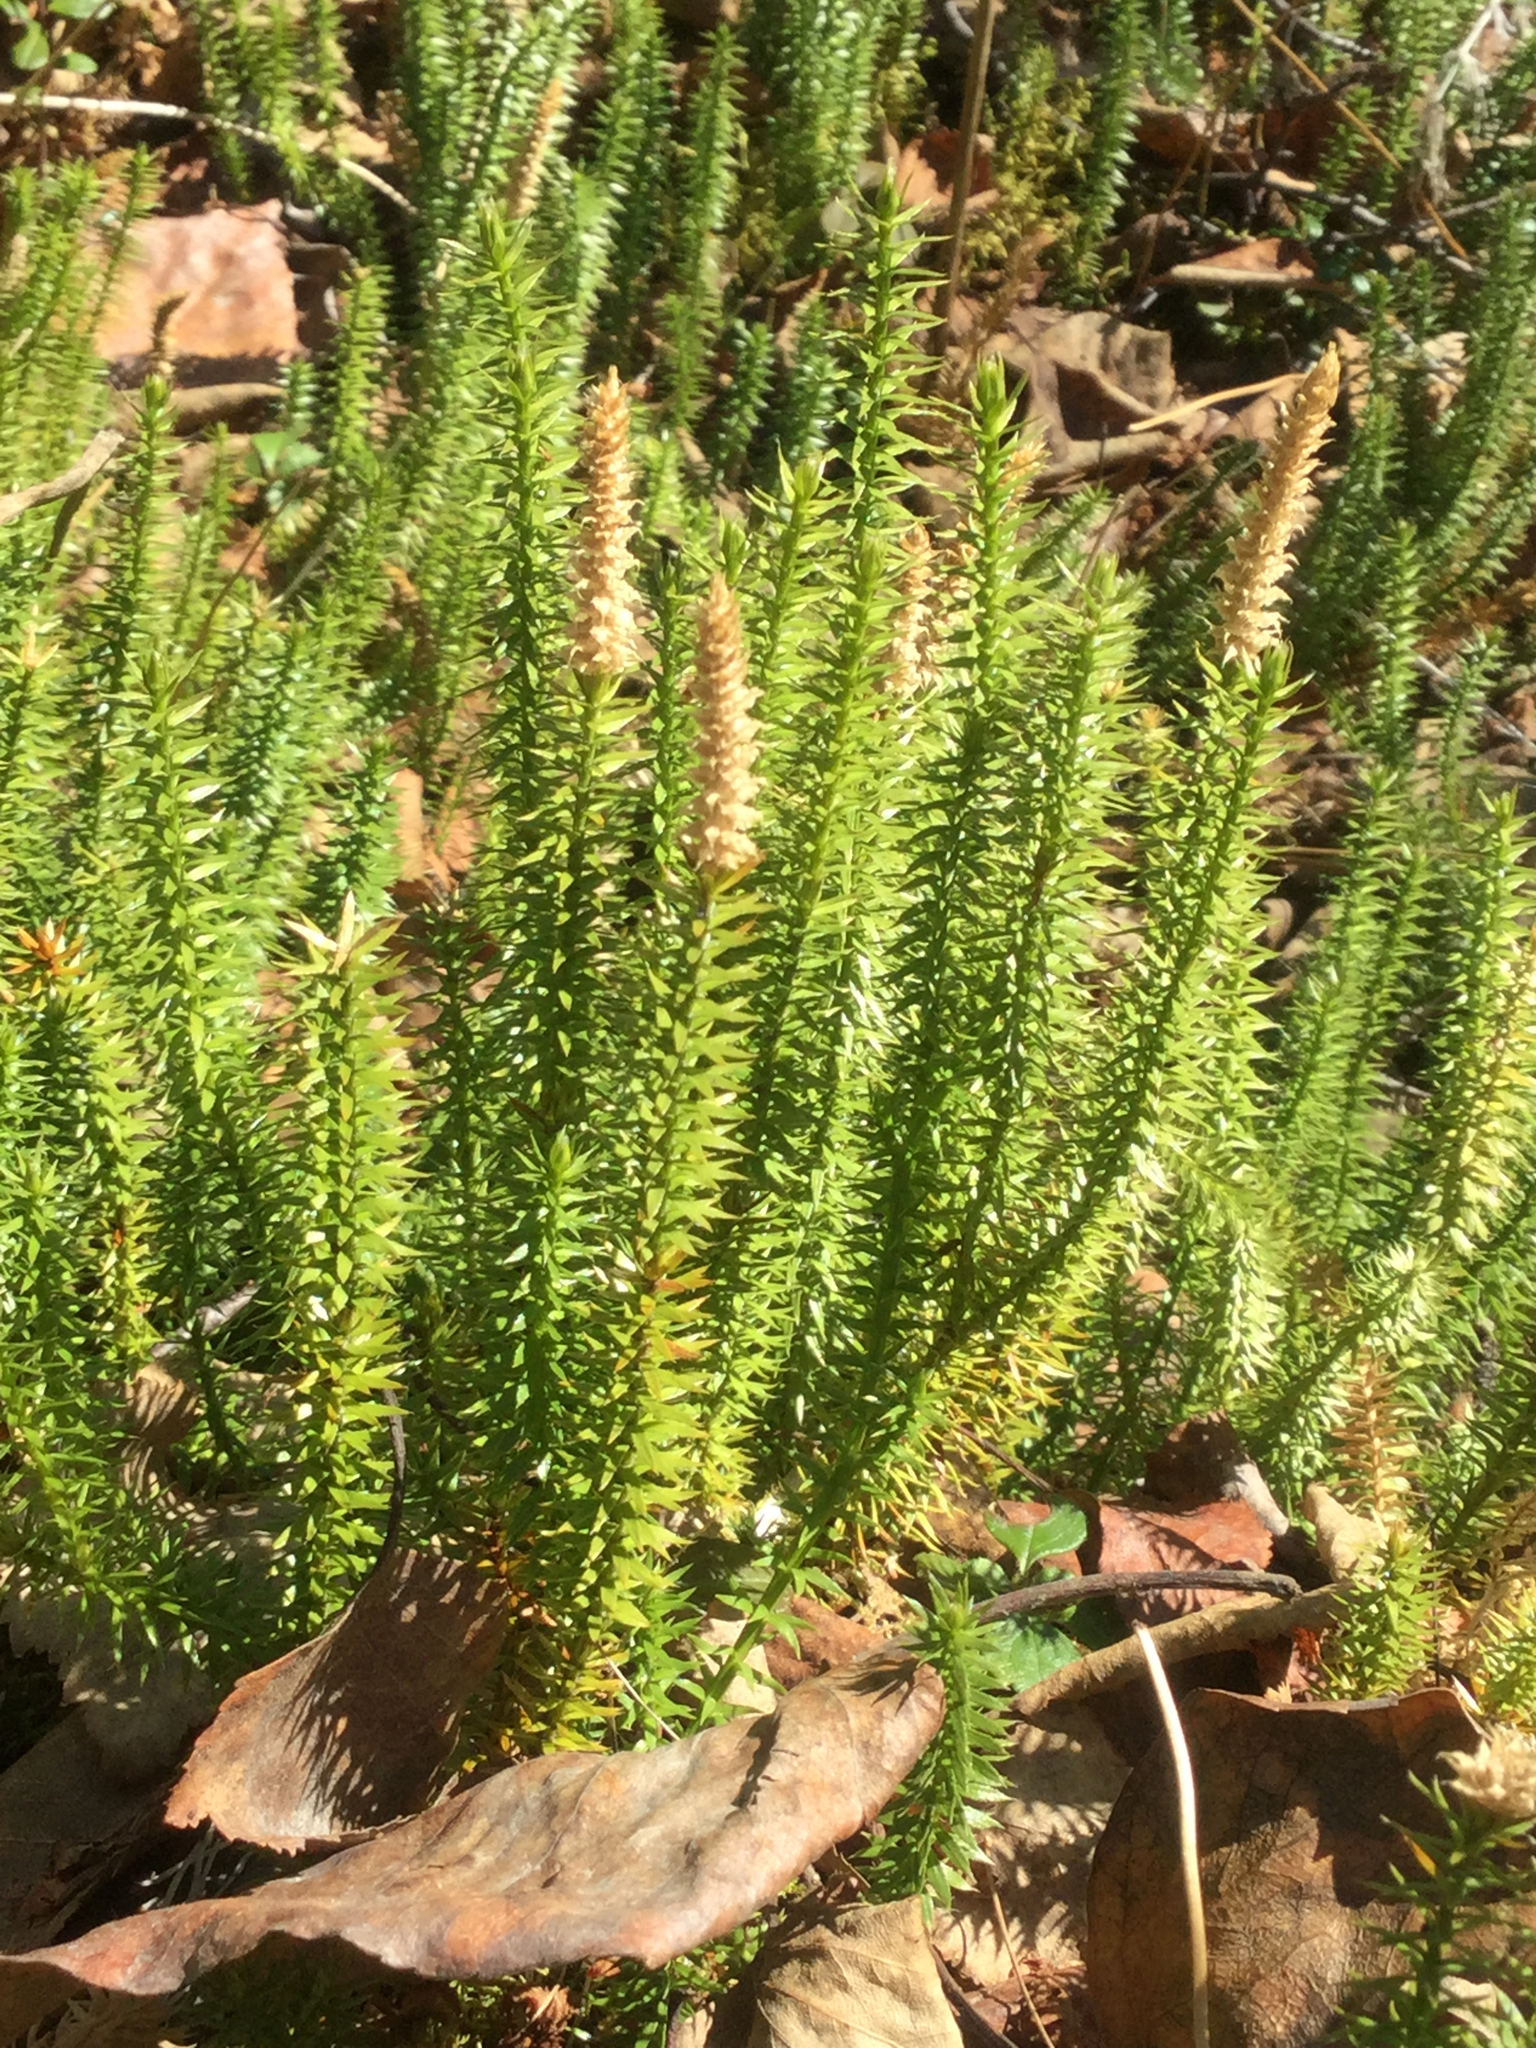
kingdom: Plantae
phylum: Tracheophyta
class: Lycopodiopsida
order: Lycopodiales
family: Lycopodiaceae
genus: Spinulum
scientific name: Spinulum annotinum
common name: Interrupted club-moss
